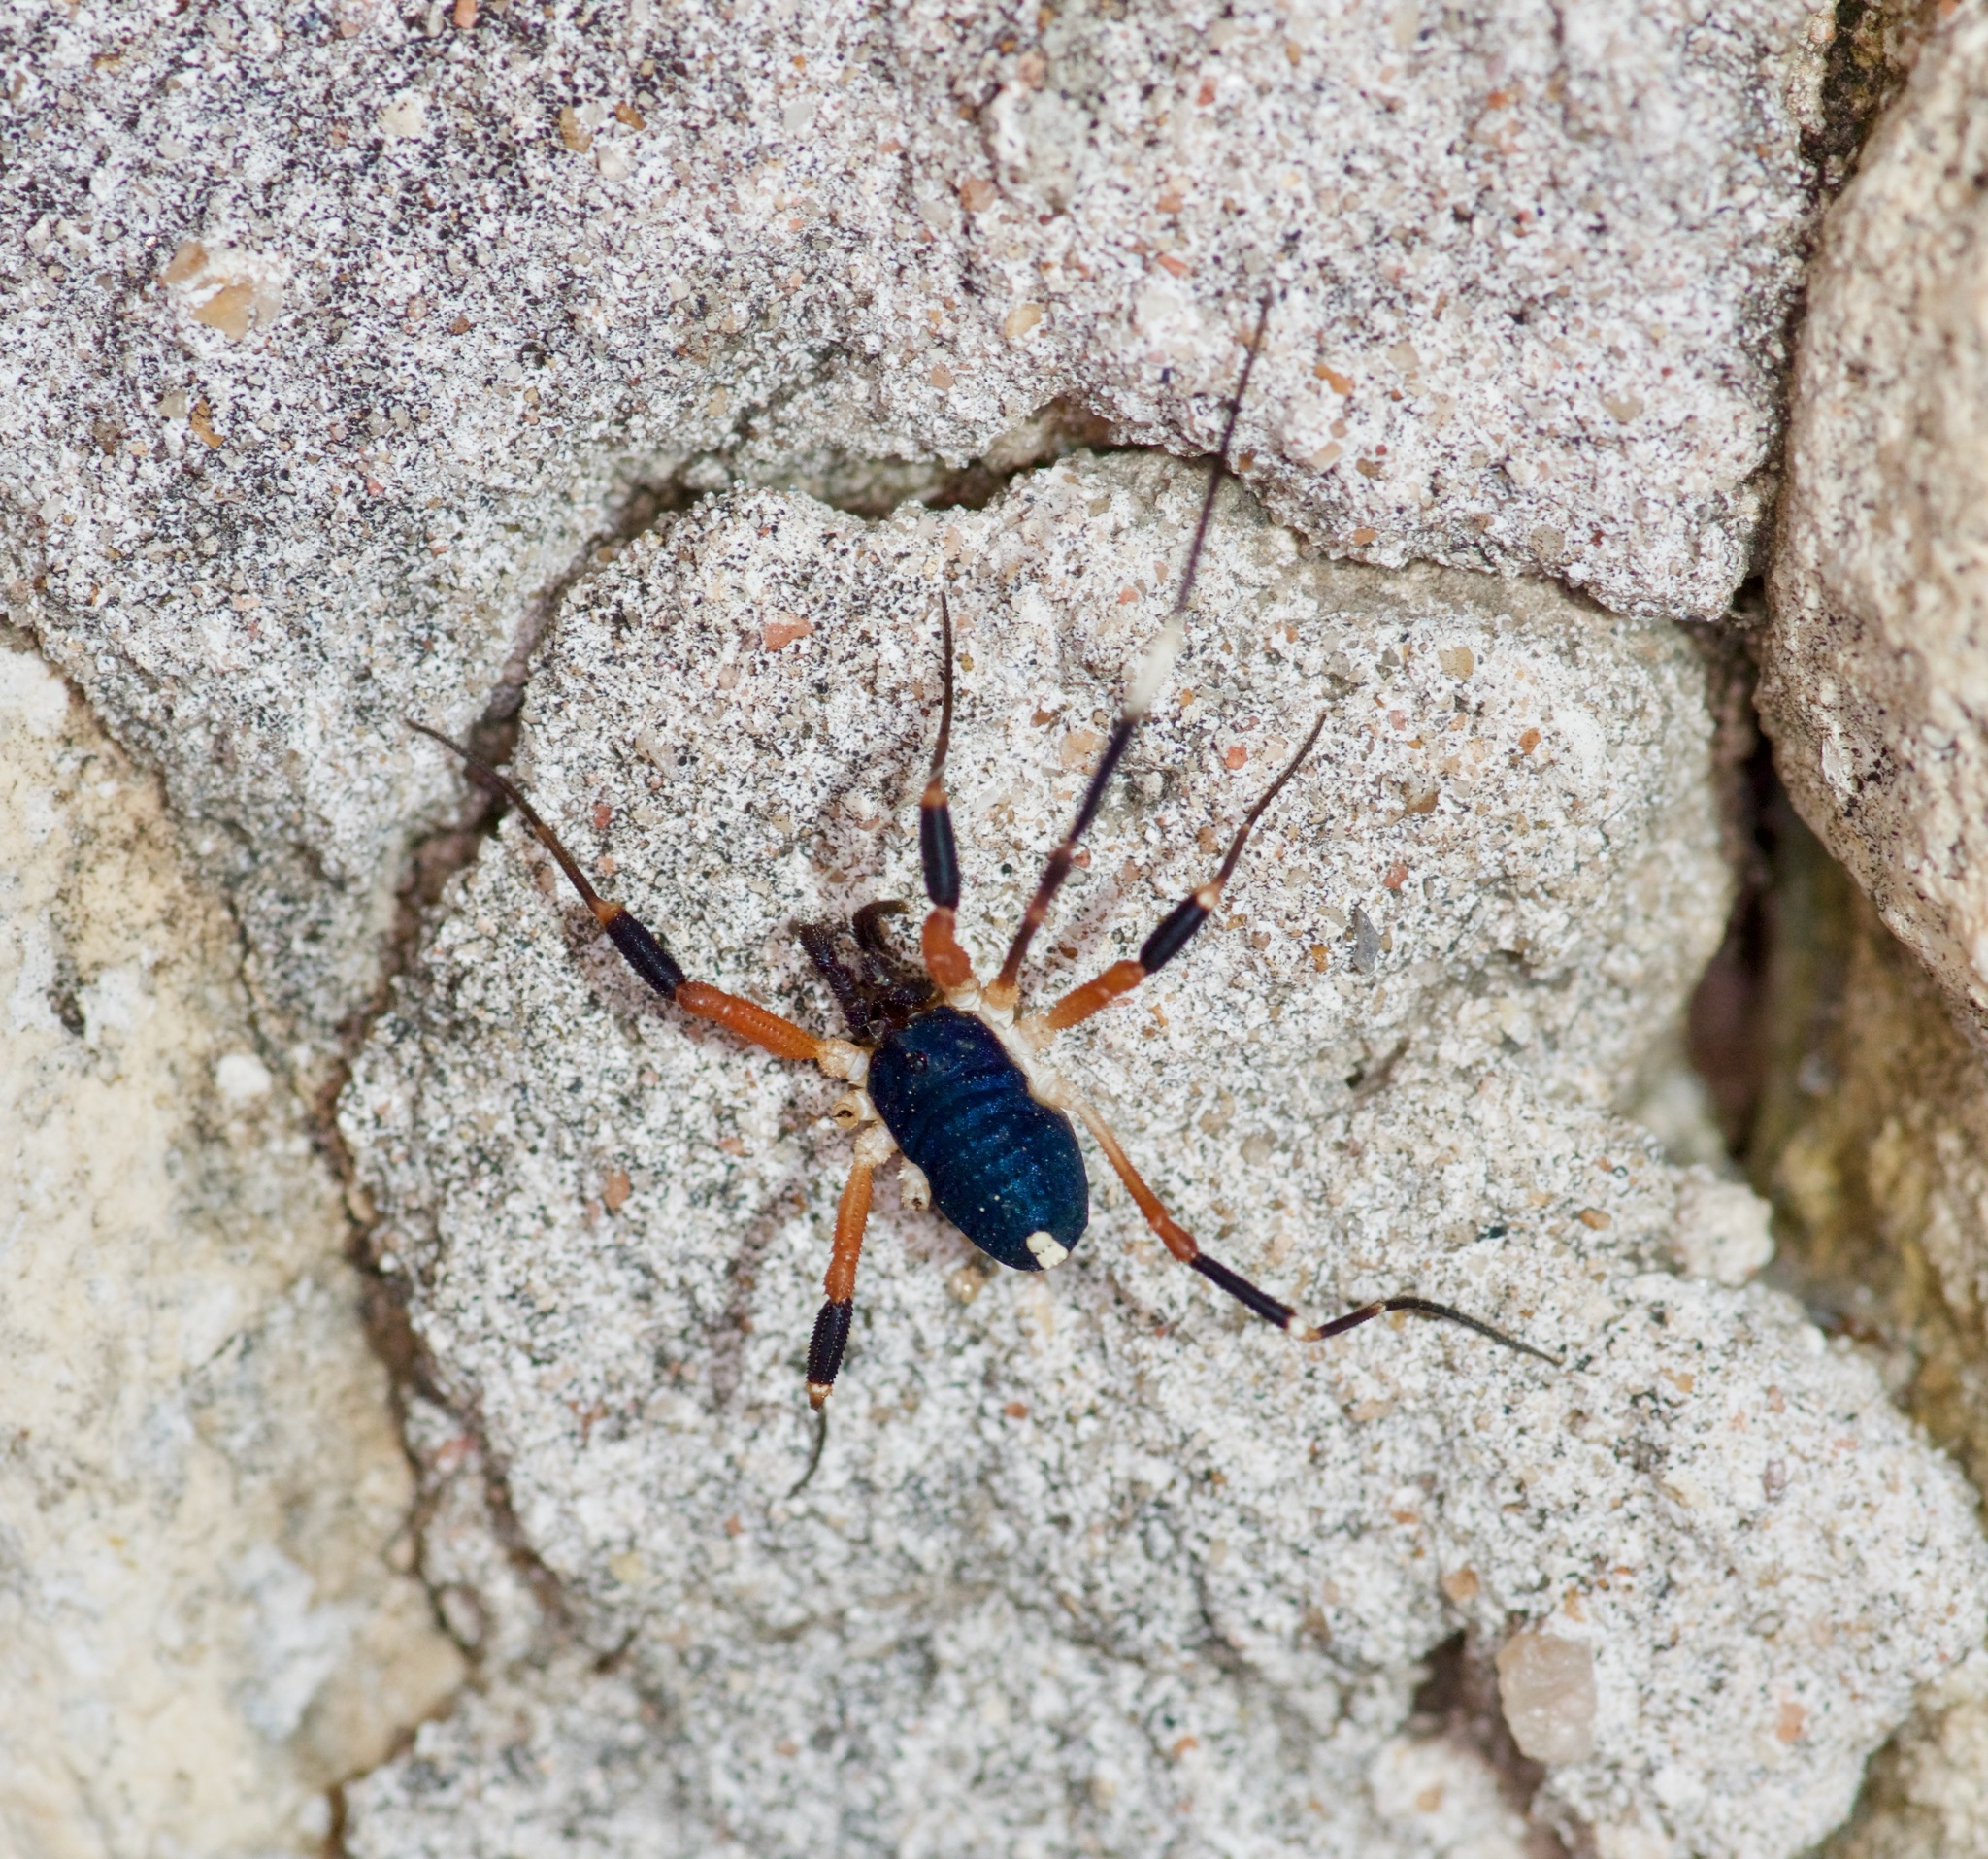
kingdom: Animalia
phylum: Arthropoda
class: Arachnida
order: Opiliones
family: Globipedidae
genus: Dalquestia
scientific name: Dalquestia formosa
